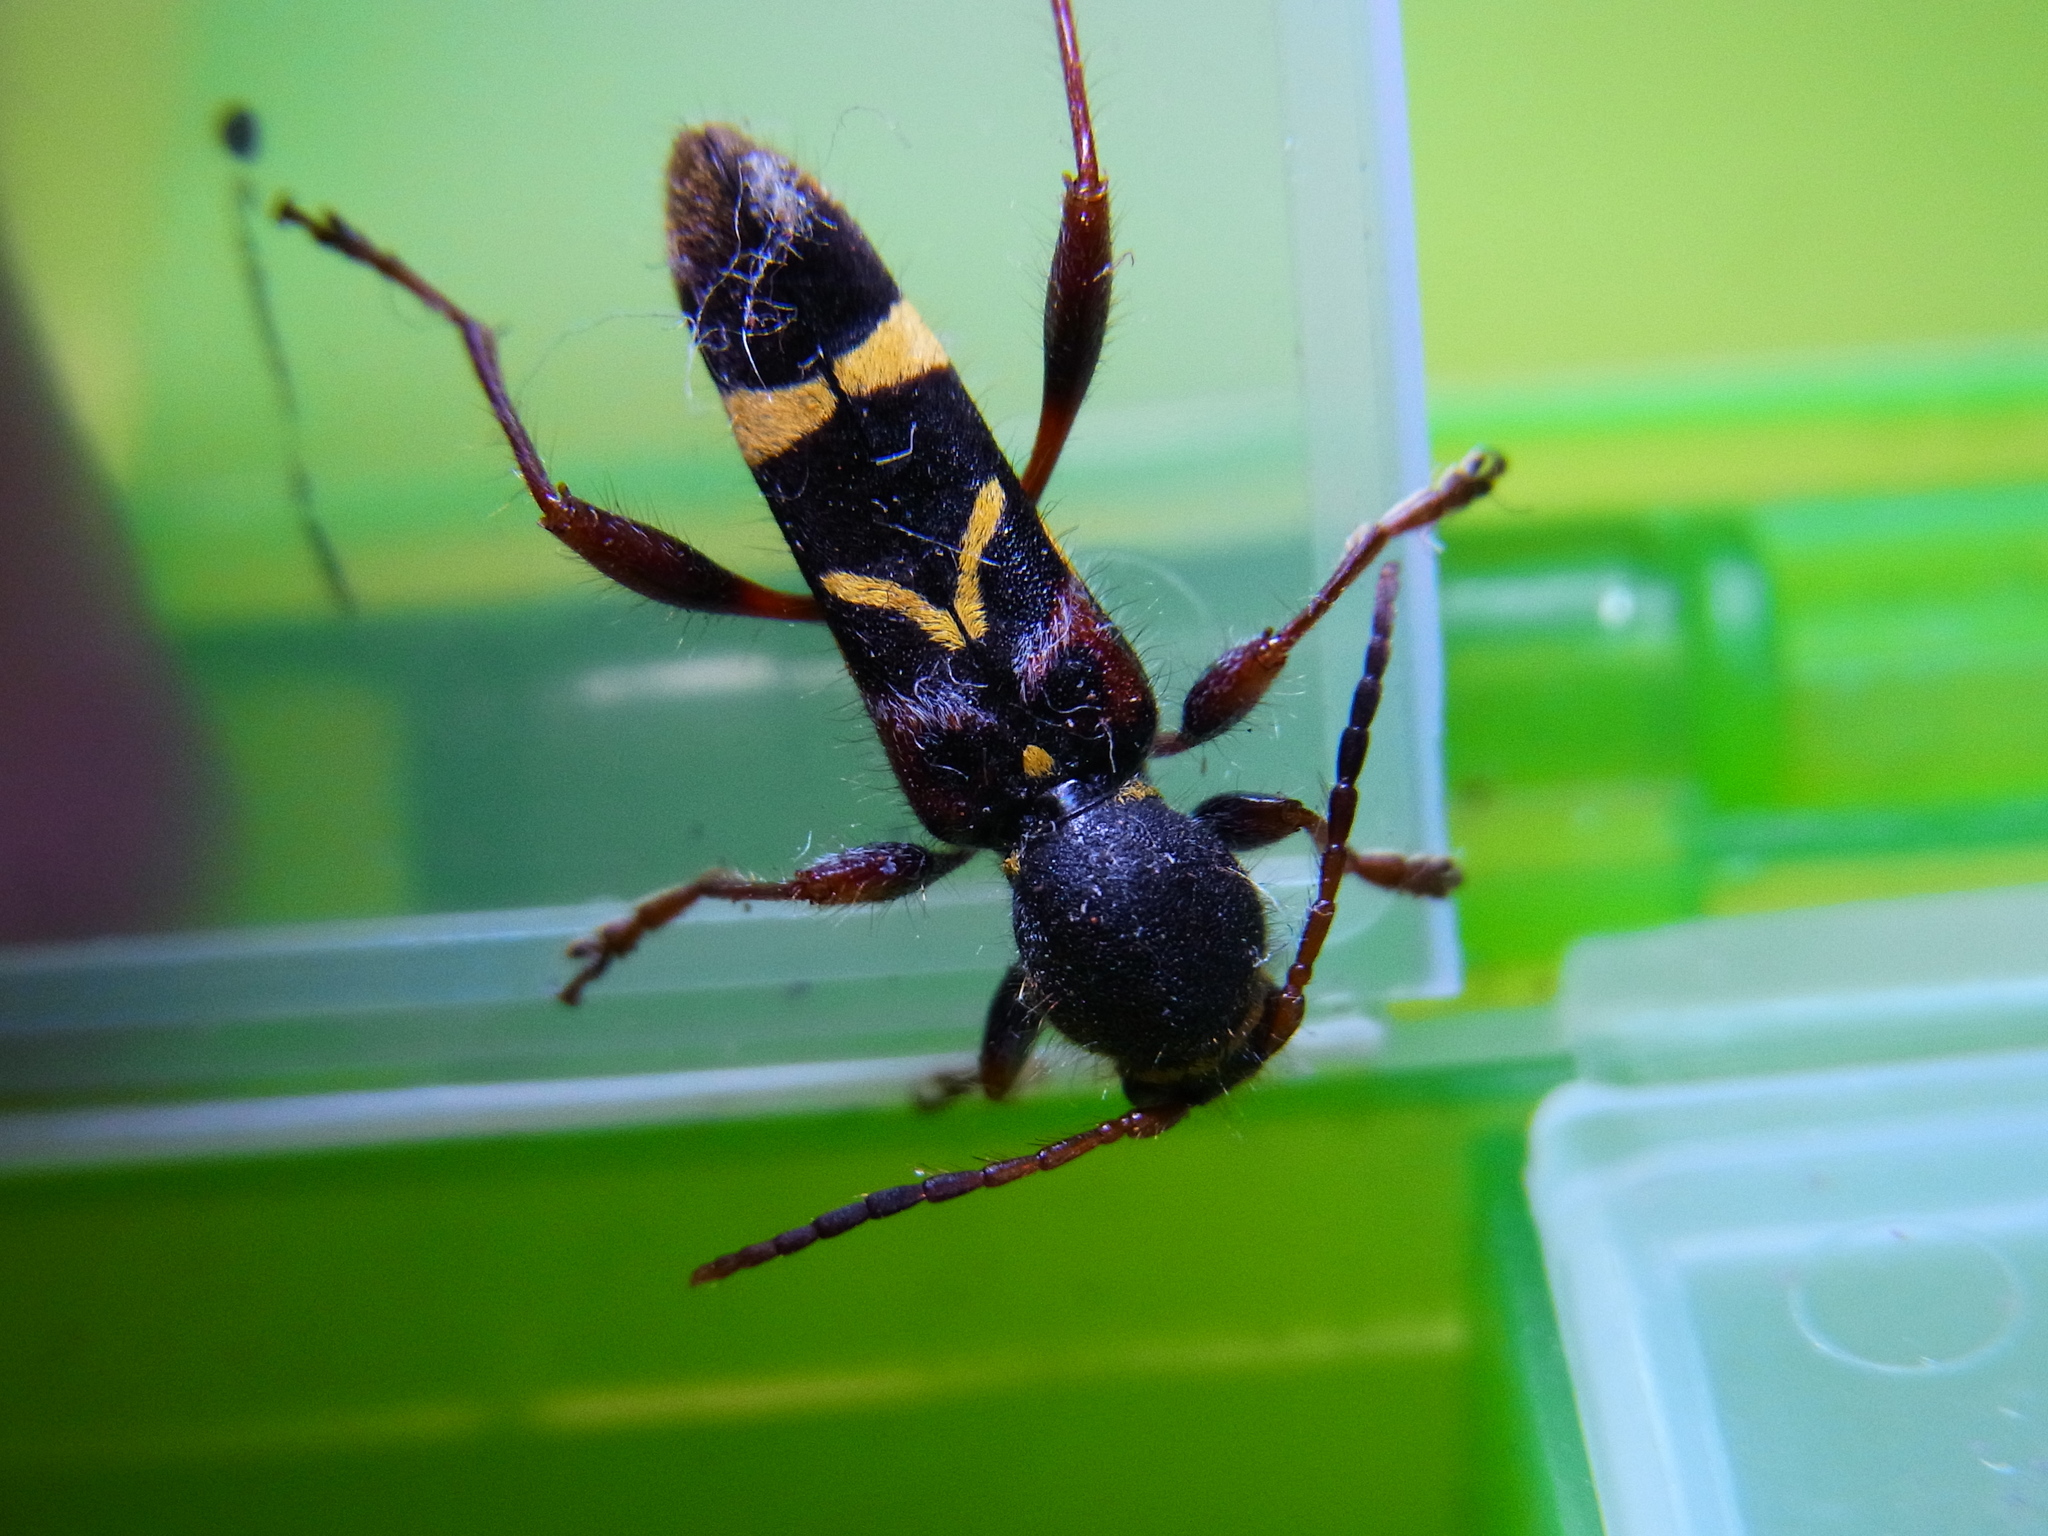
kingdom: Animalia
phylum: Arthropoda
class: Insecta
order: Coleoptera
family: Cerambycidae
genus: Cyrtoclytus
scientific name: Cyrtoclytus caproides
